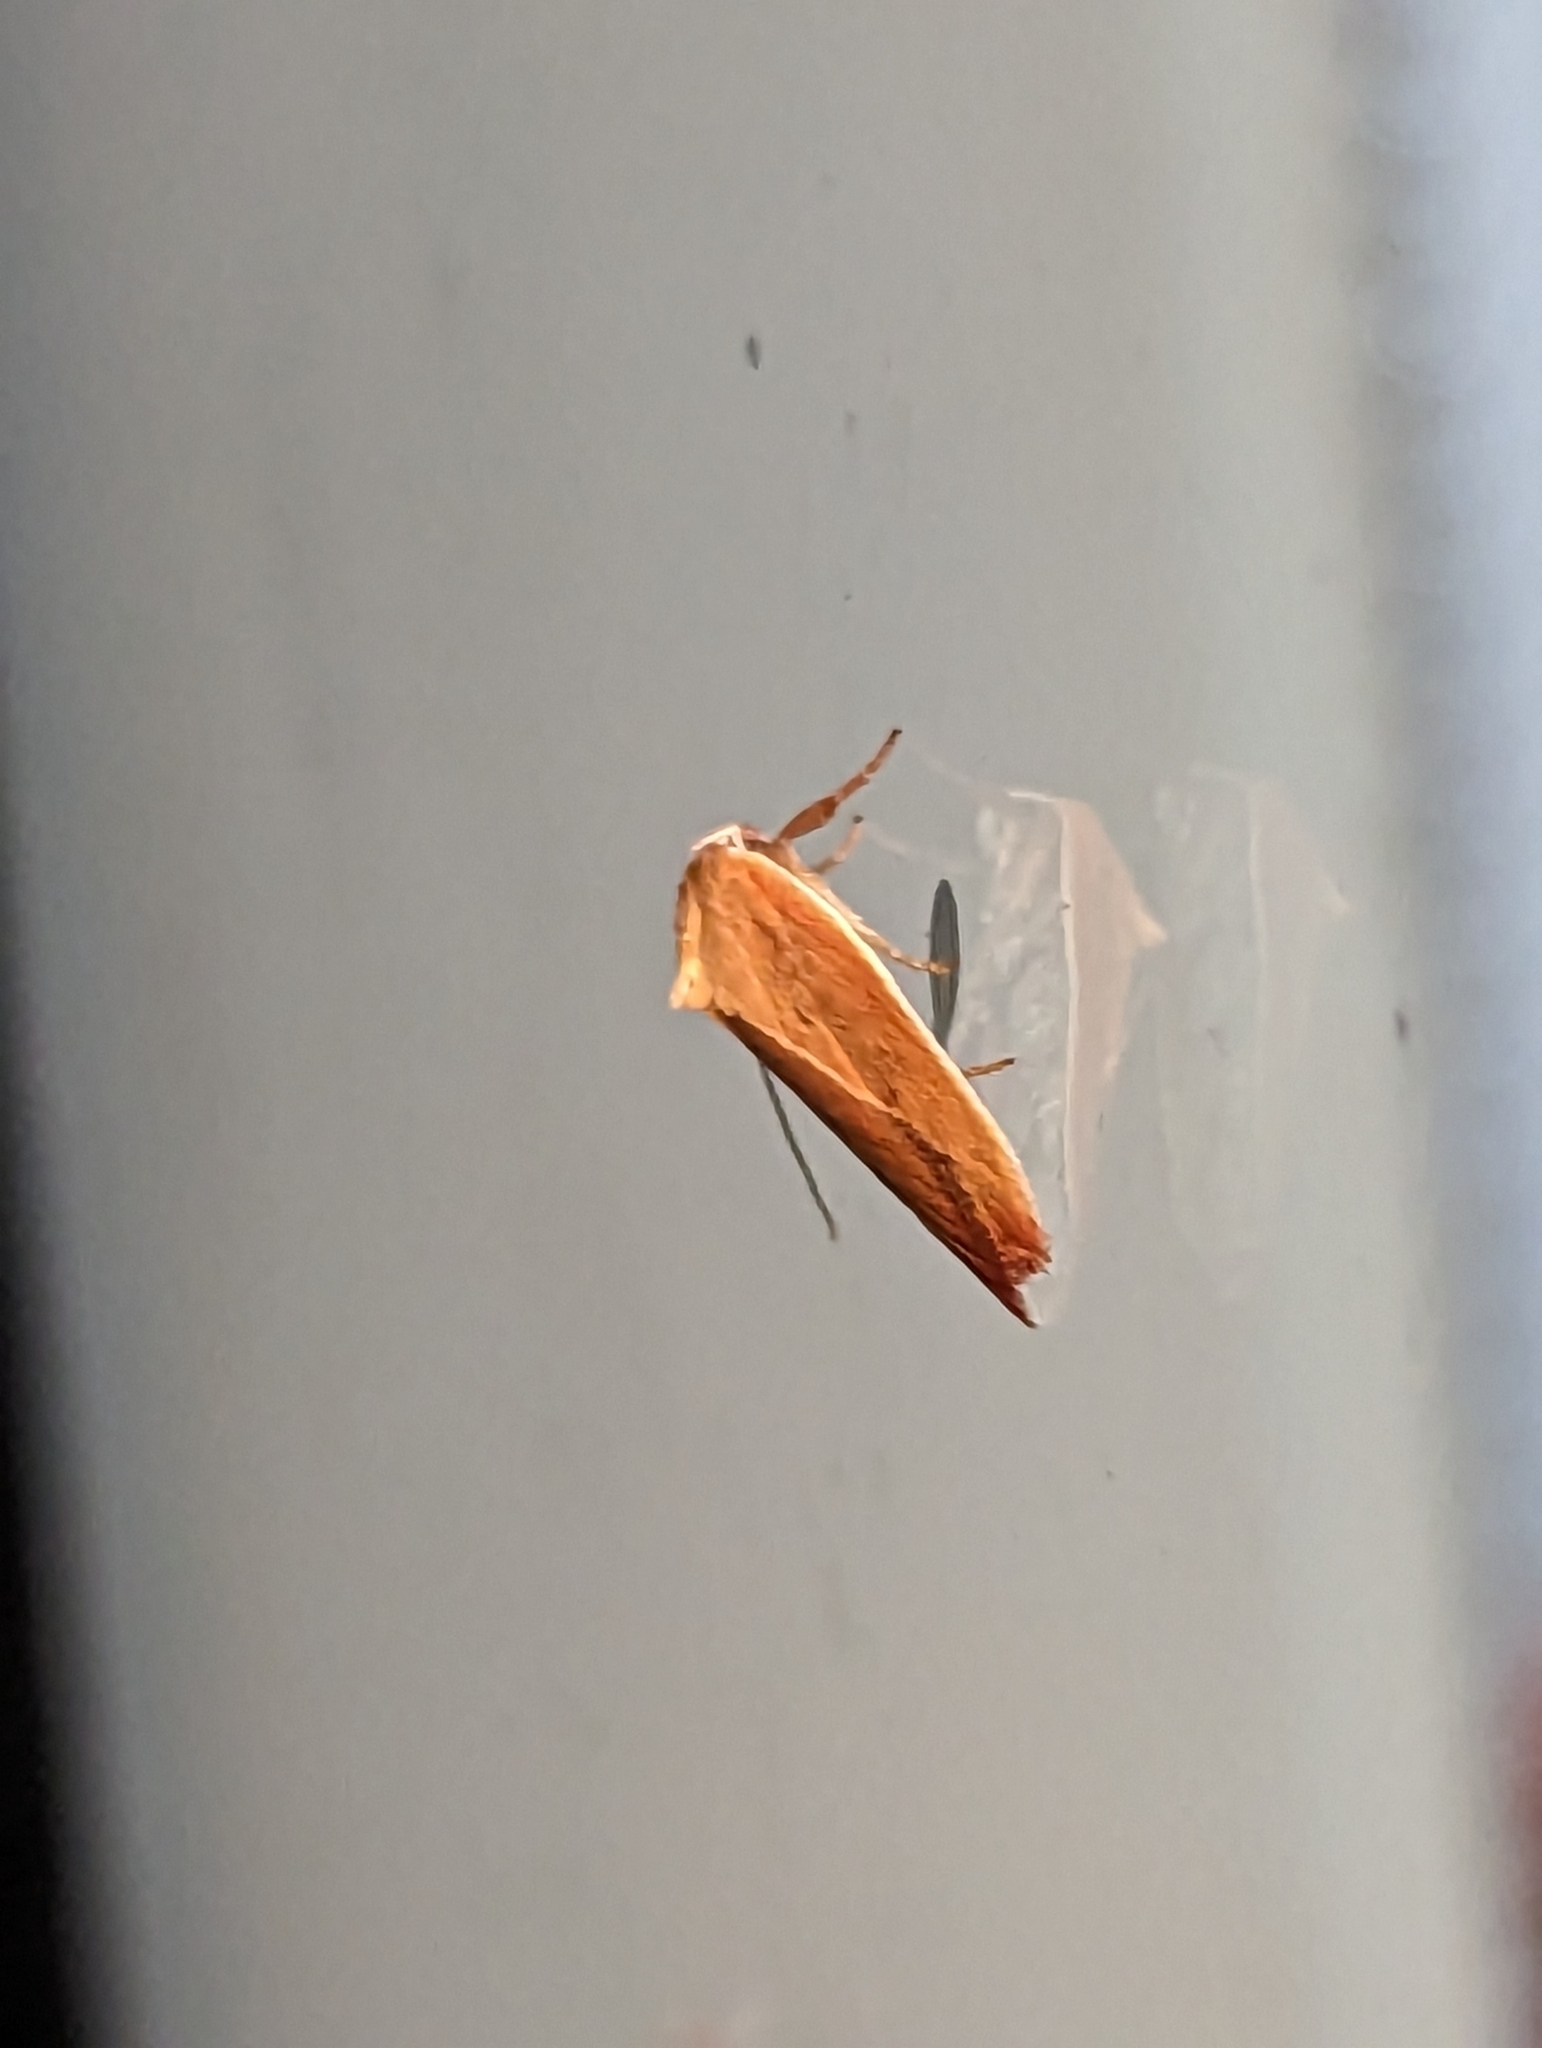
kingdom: Animalia
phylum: Arthropoda
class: Insecta
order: Lepidoptera
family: Oecophoridae
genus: Ptyoptila
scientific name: Ptyoptila matutinella
